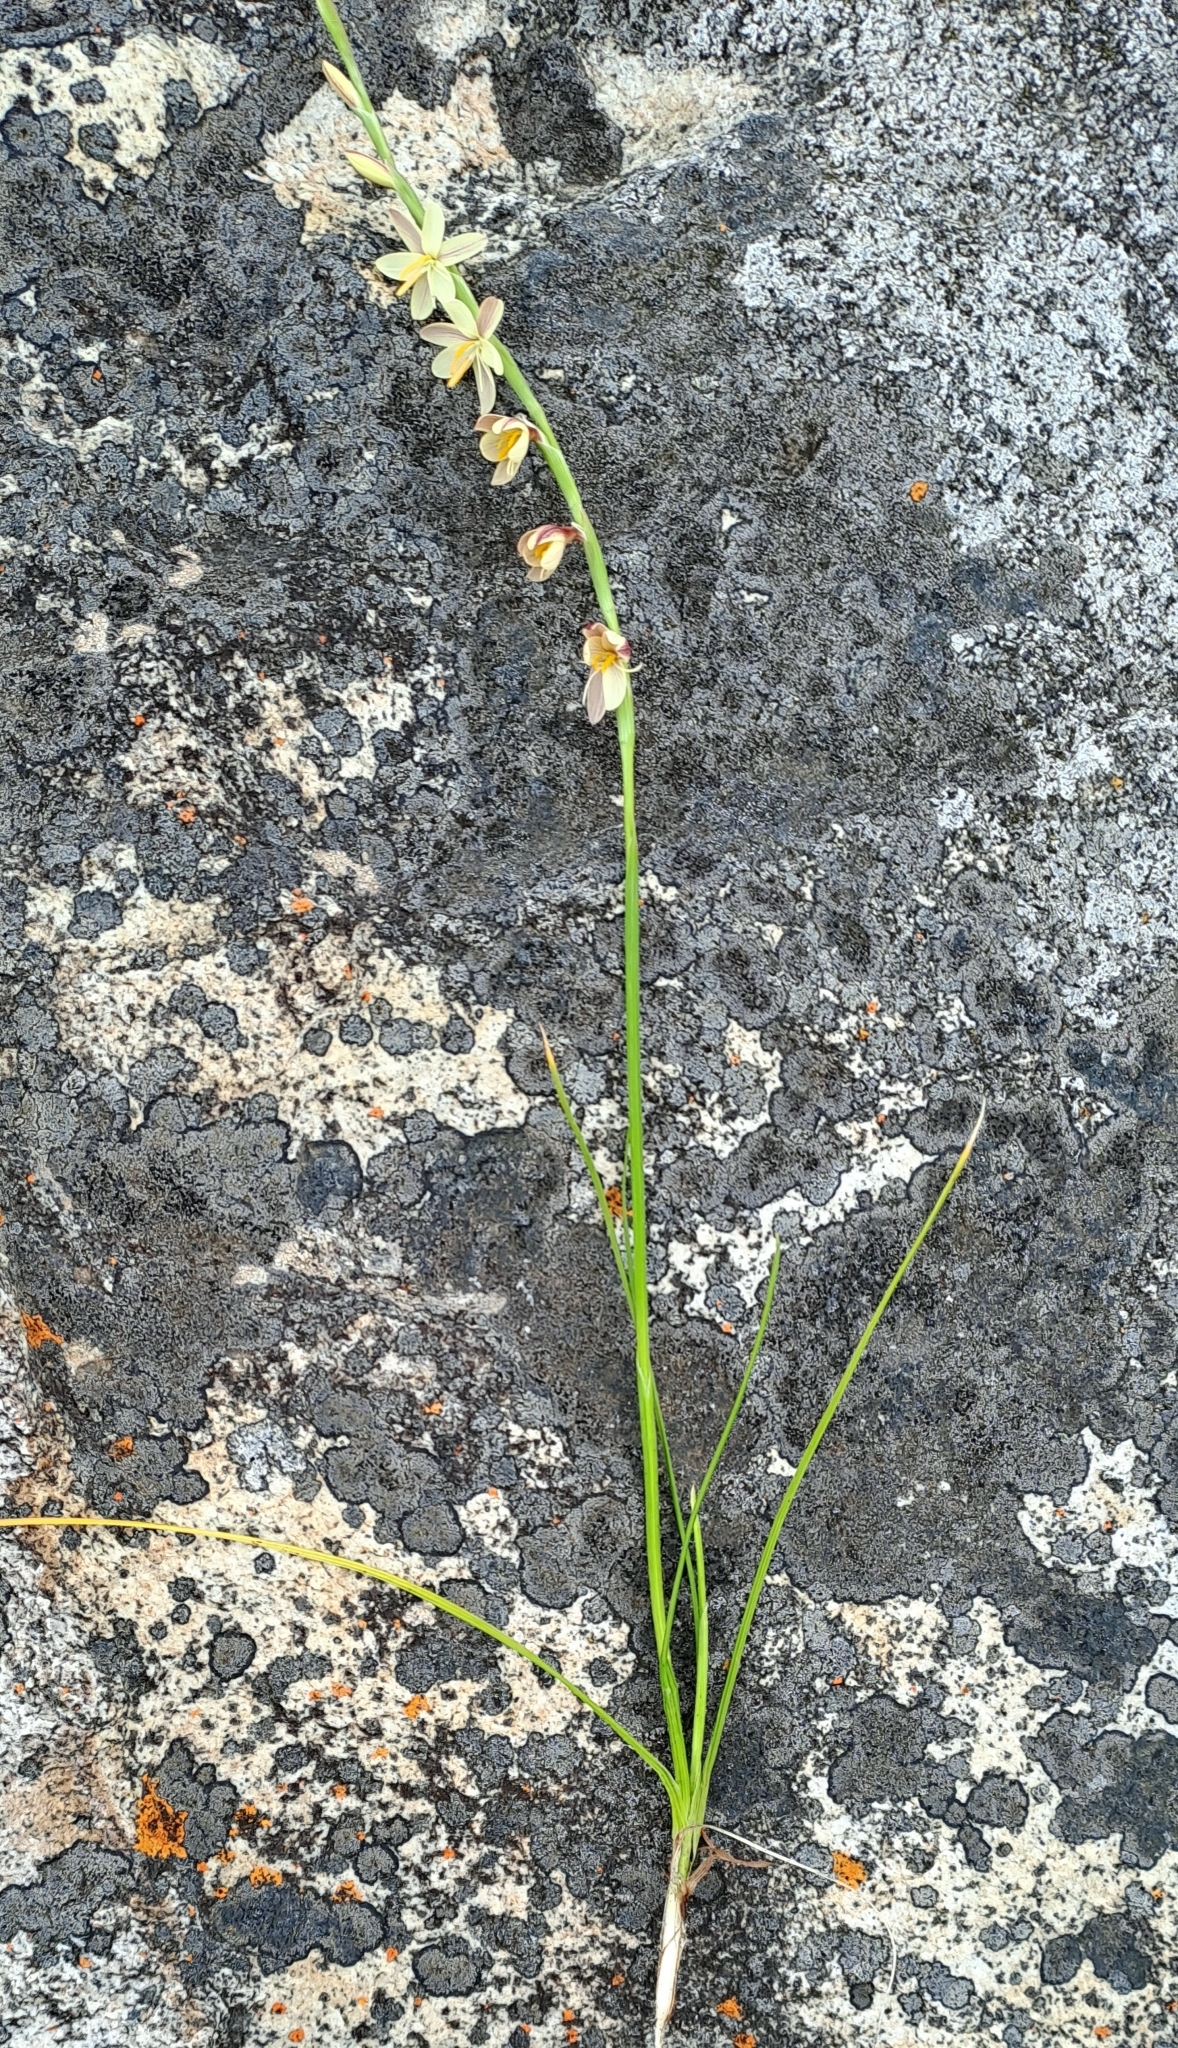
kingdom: Plantae
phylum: Tracheophyta
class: Liliopsida
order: Asparagales
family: Iridaceae
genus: Hesperantha
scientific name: Hesperantha radiata
